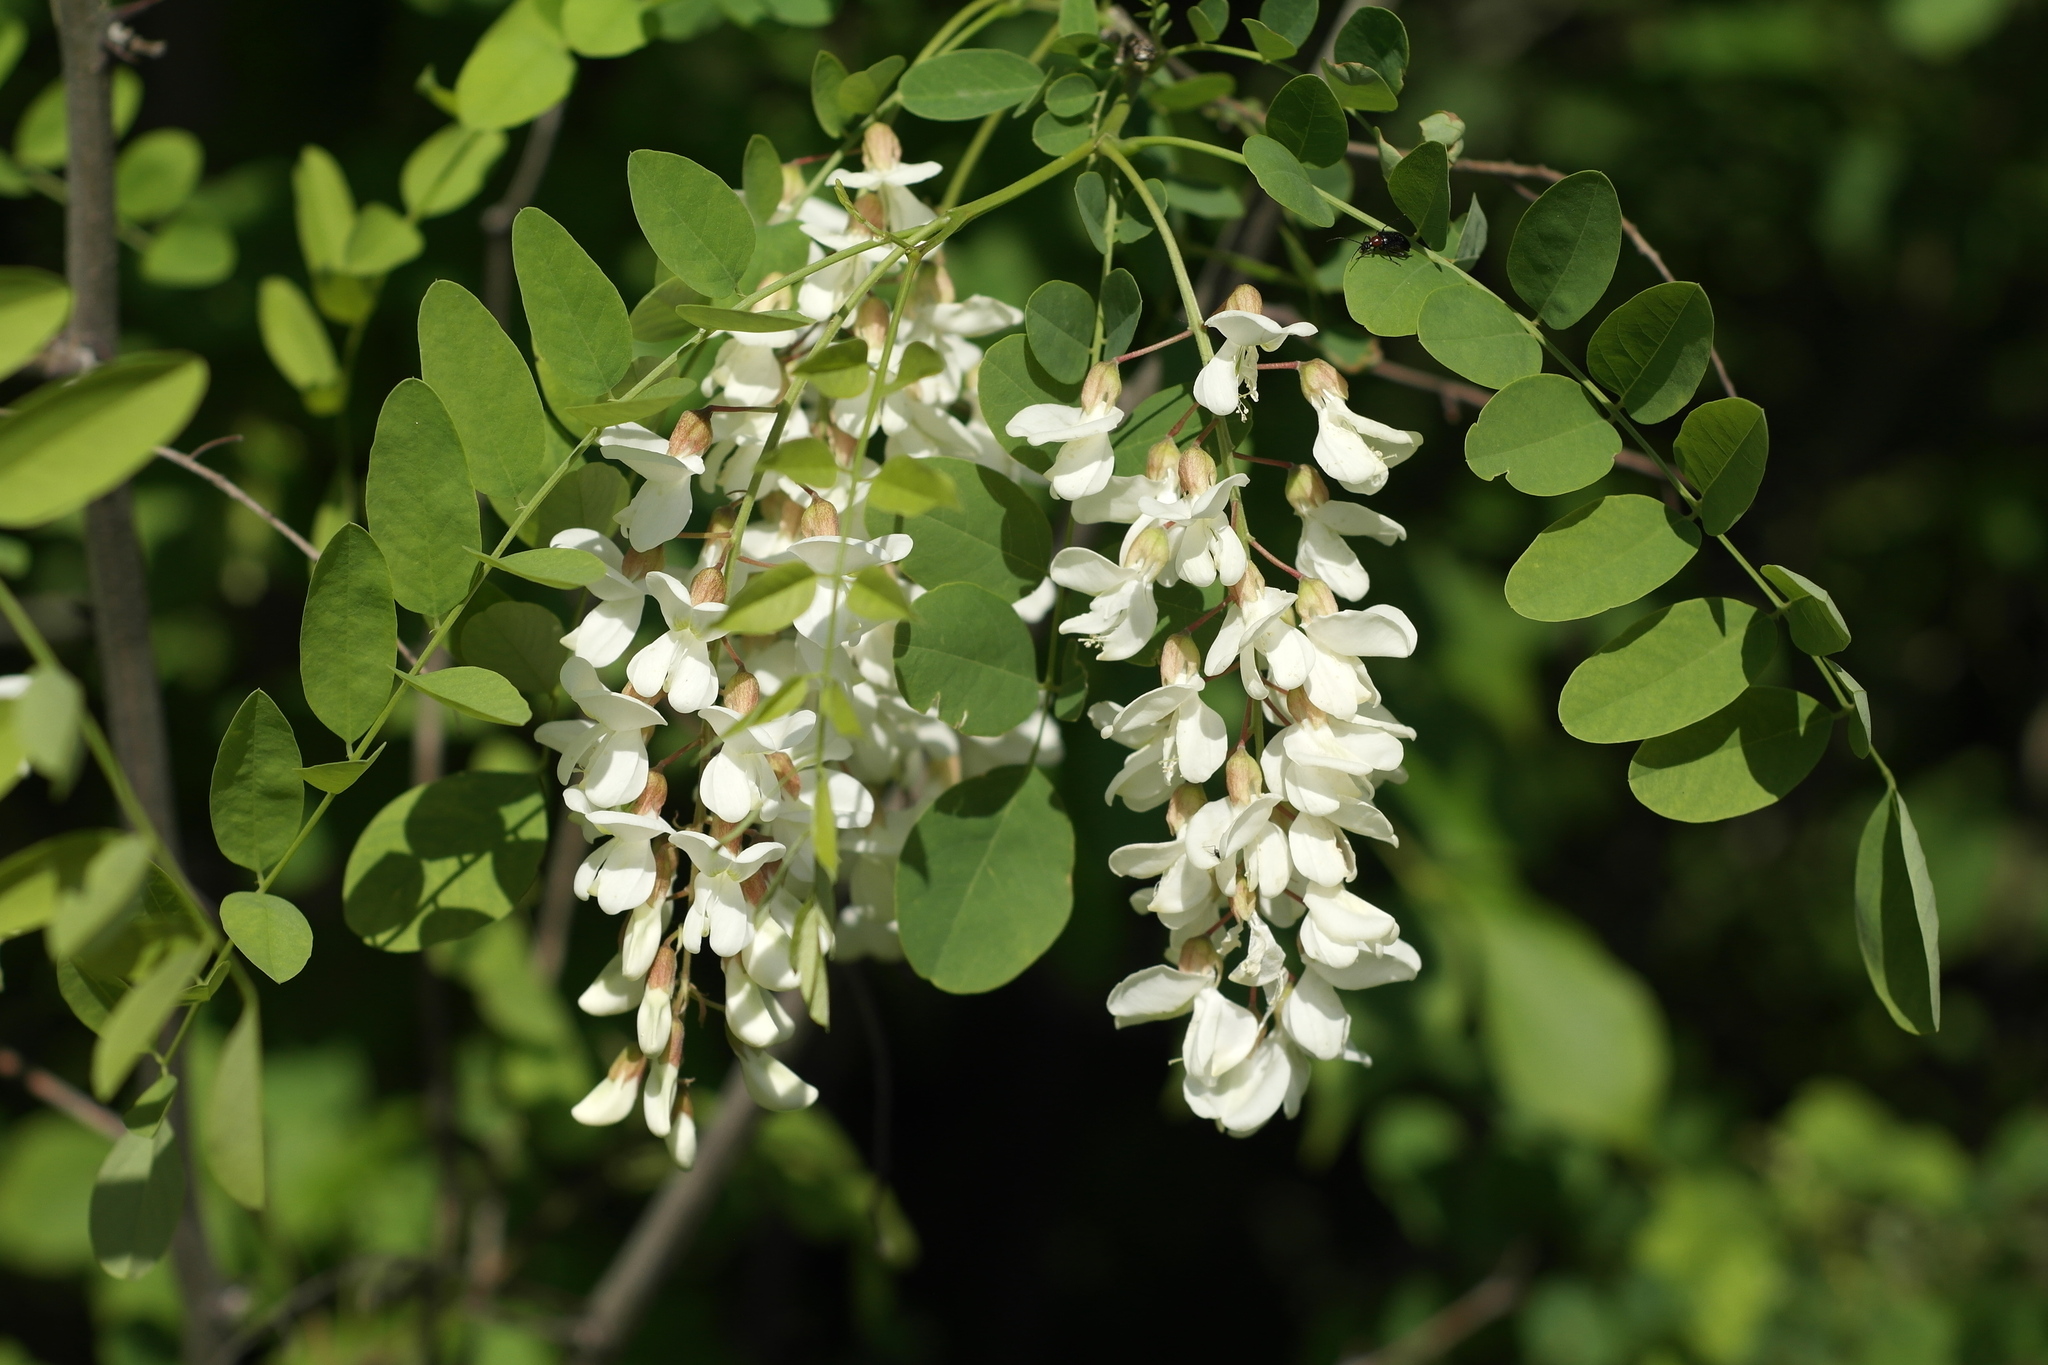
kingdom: Plantae
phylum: Tracheophyta
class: Magnoliopsida
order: Fabales
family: Fabaceae
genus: Robinia
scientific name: Robinia pseudoacacia
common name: Black locust
